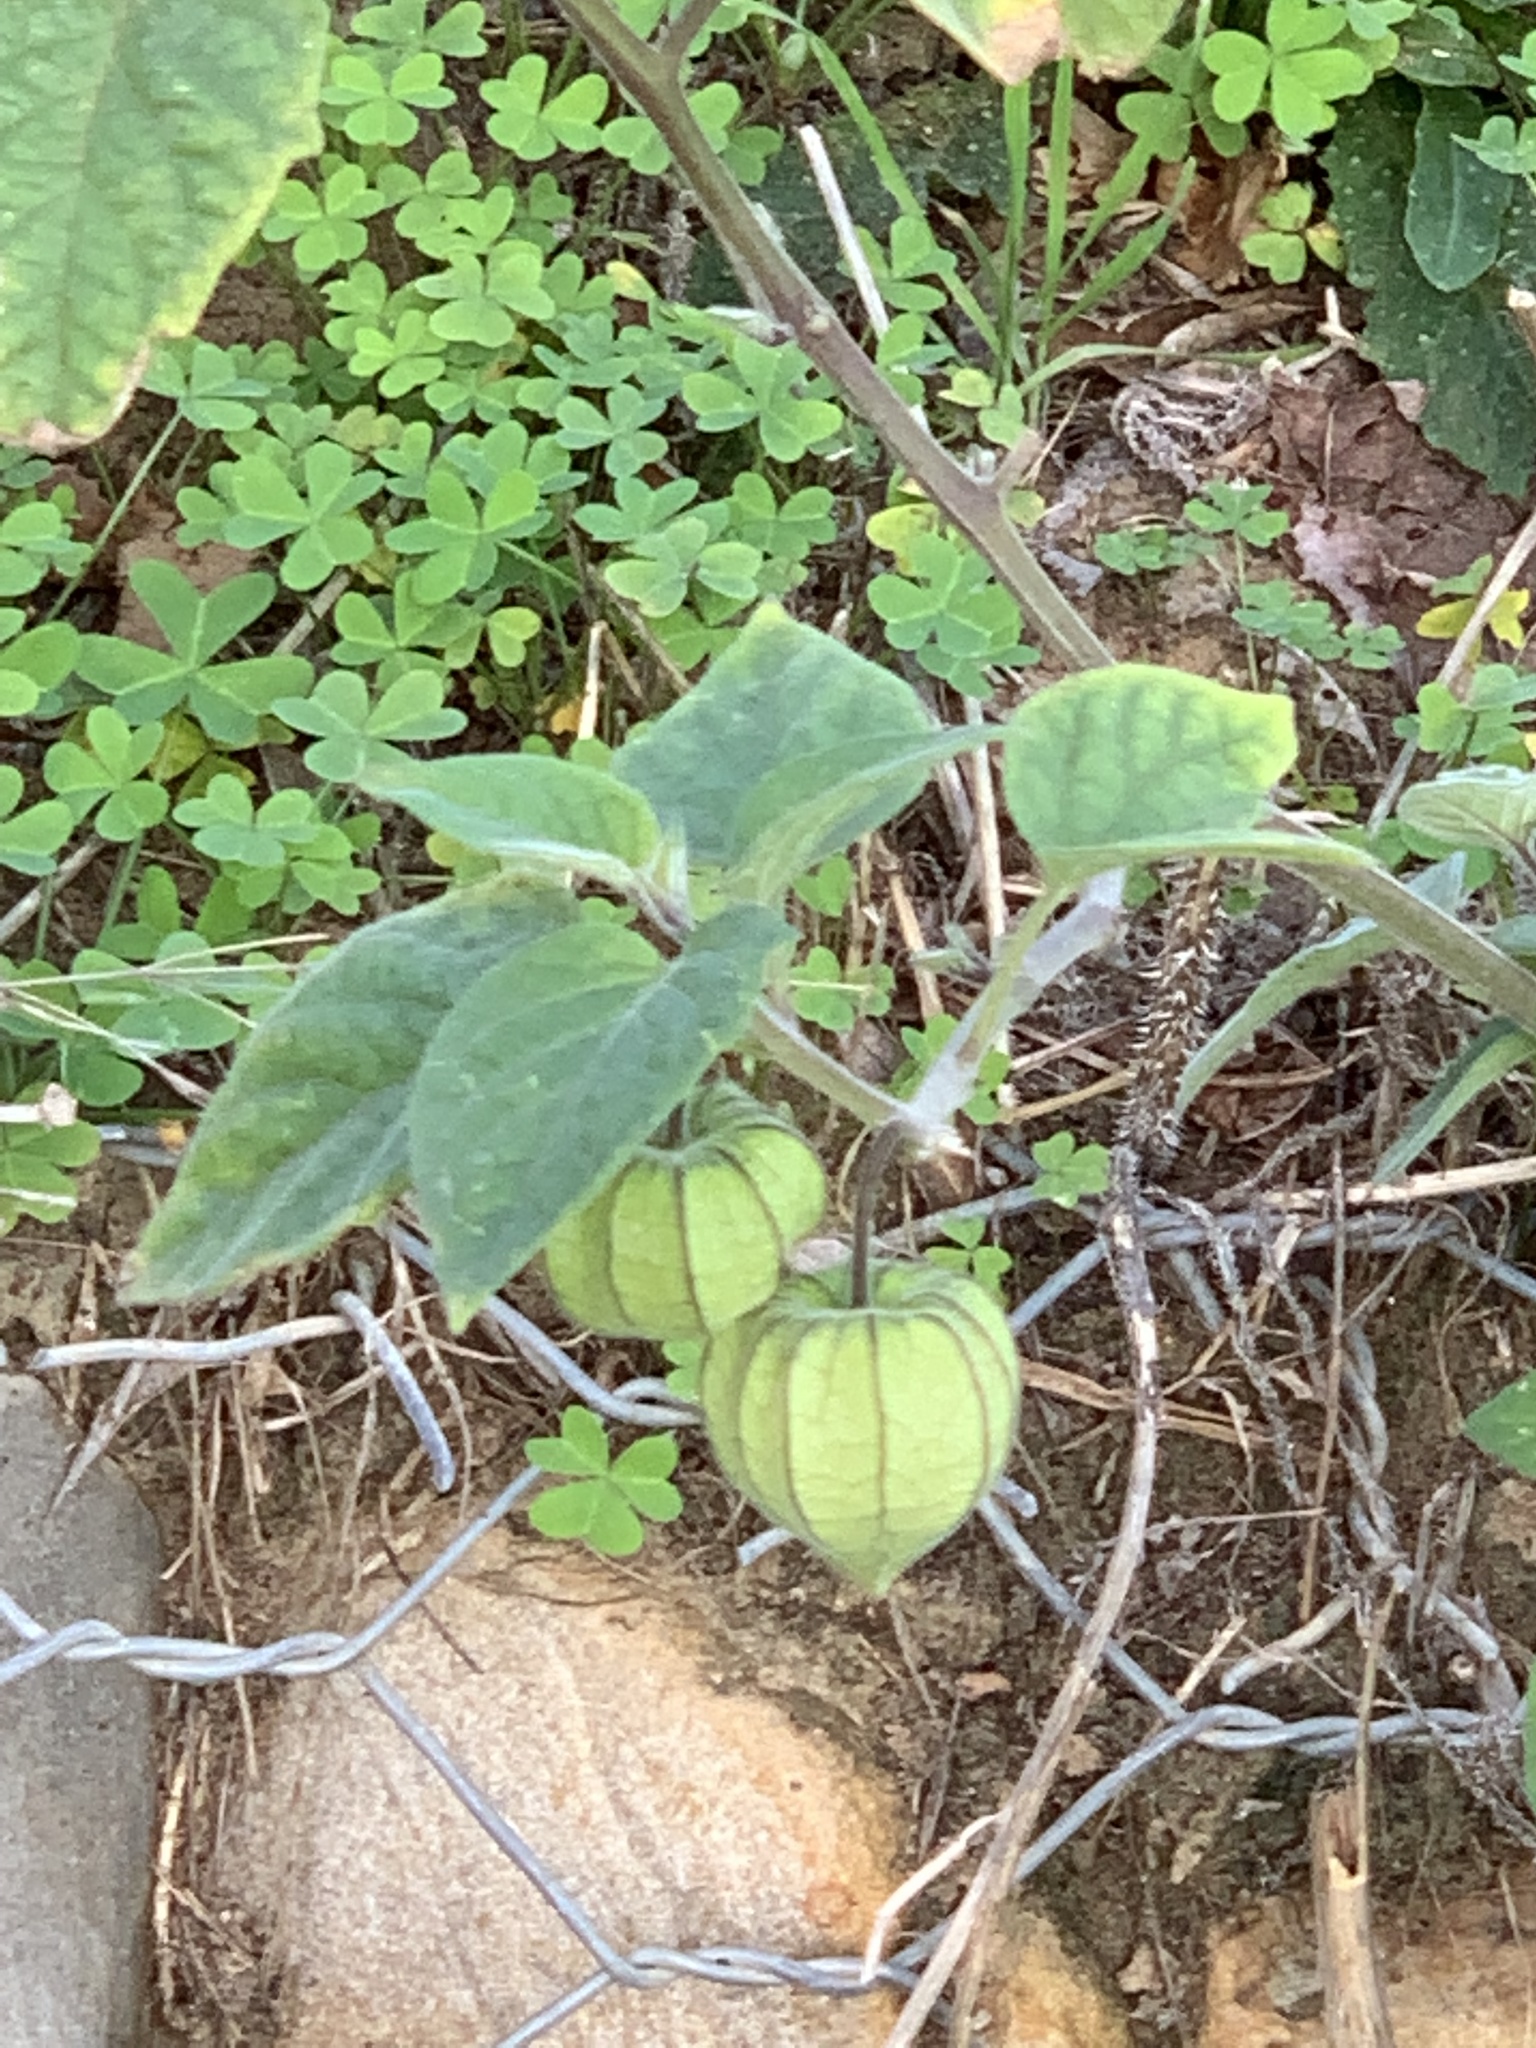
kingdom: Plantae
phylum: Tracheophyta
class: Magnoliopsida
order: Solanales
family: Solanaceae
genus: Physalis
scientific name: Physalis peruviana
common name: Cape-gooseberry
